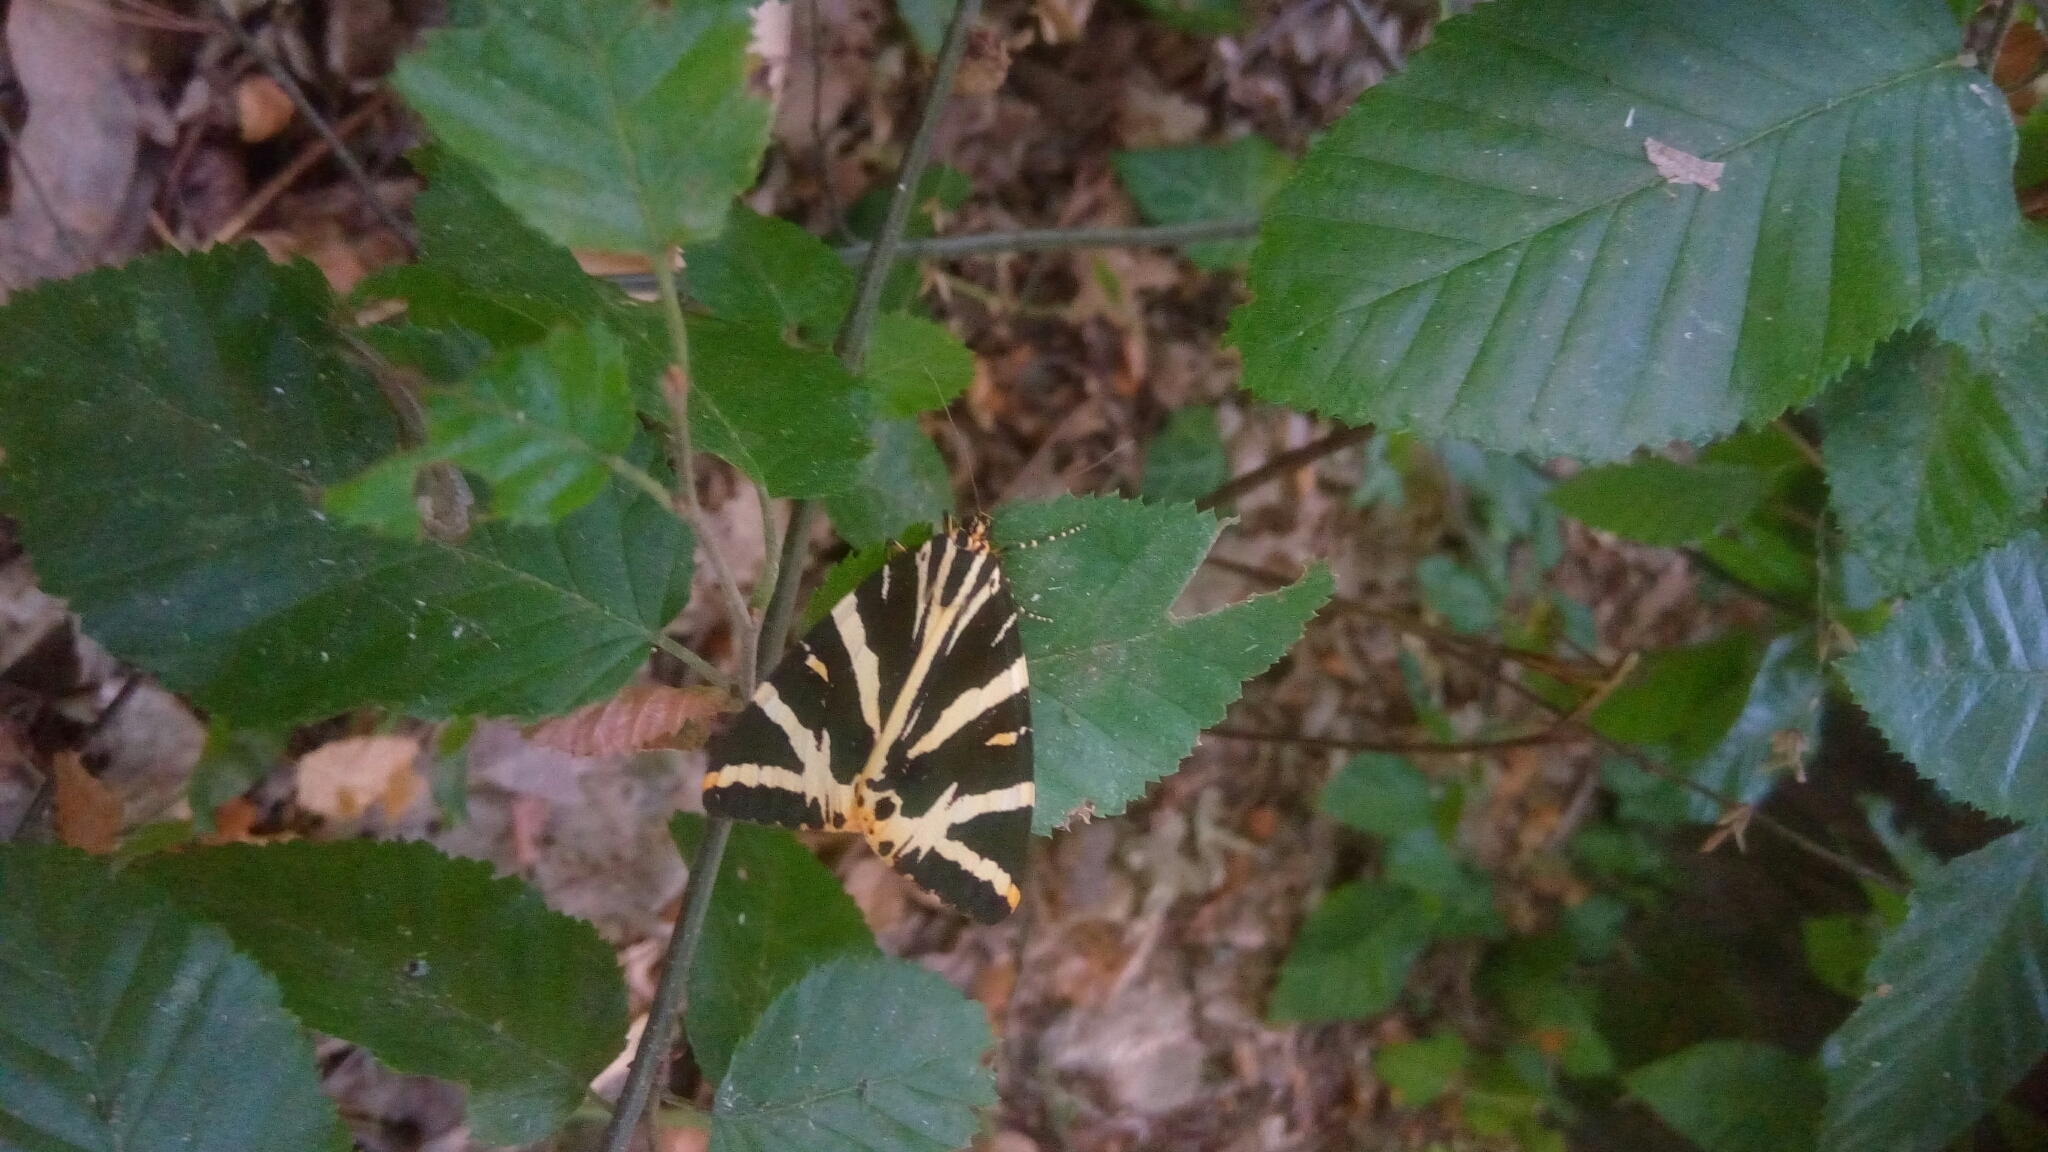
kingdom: Animalia
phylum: Arthropoda
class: Insecta
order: Lepidoptera
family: Erebidae
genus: Euplagia
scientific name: Euplagia quadripunctaria
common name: Jersey tiger
